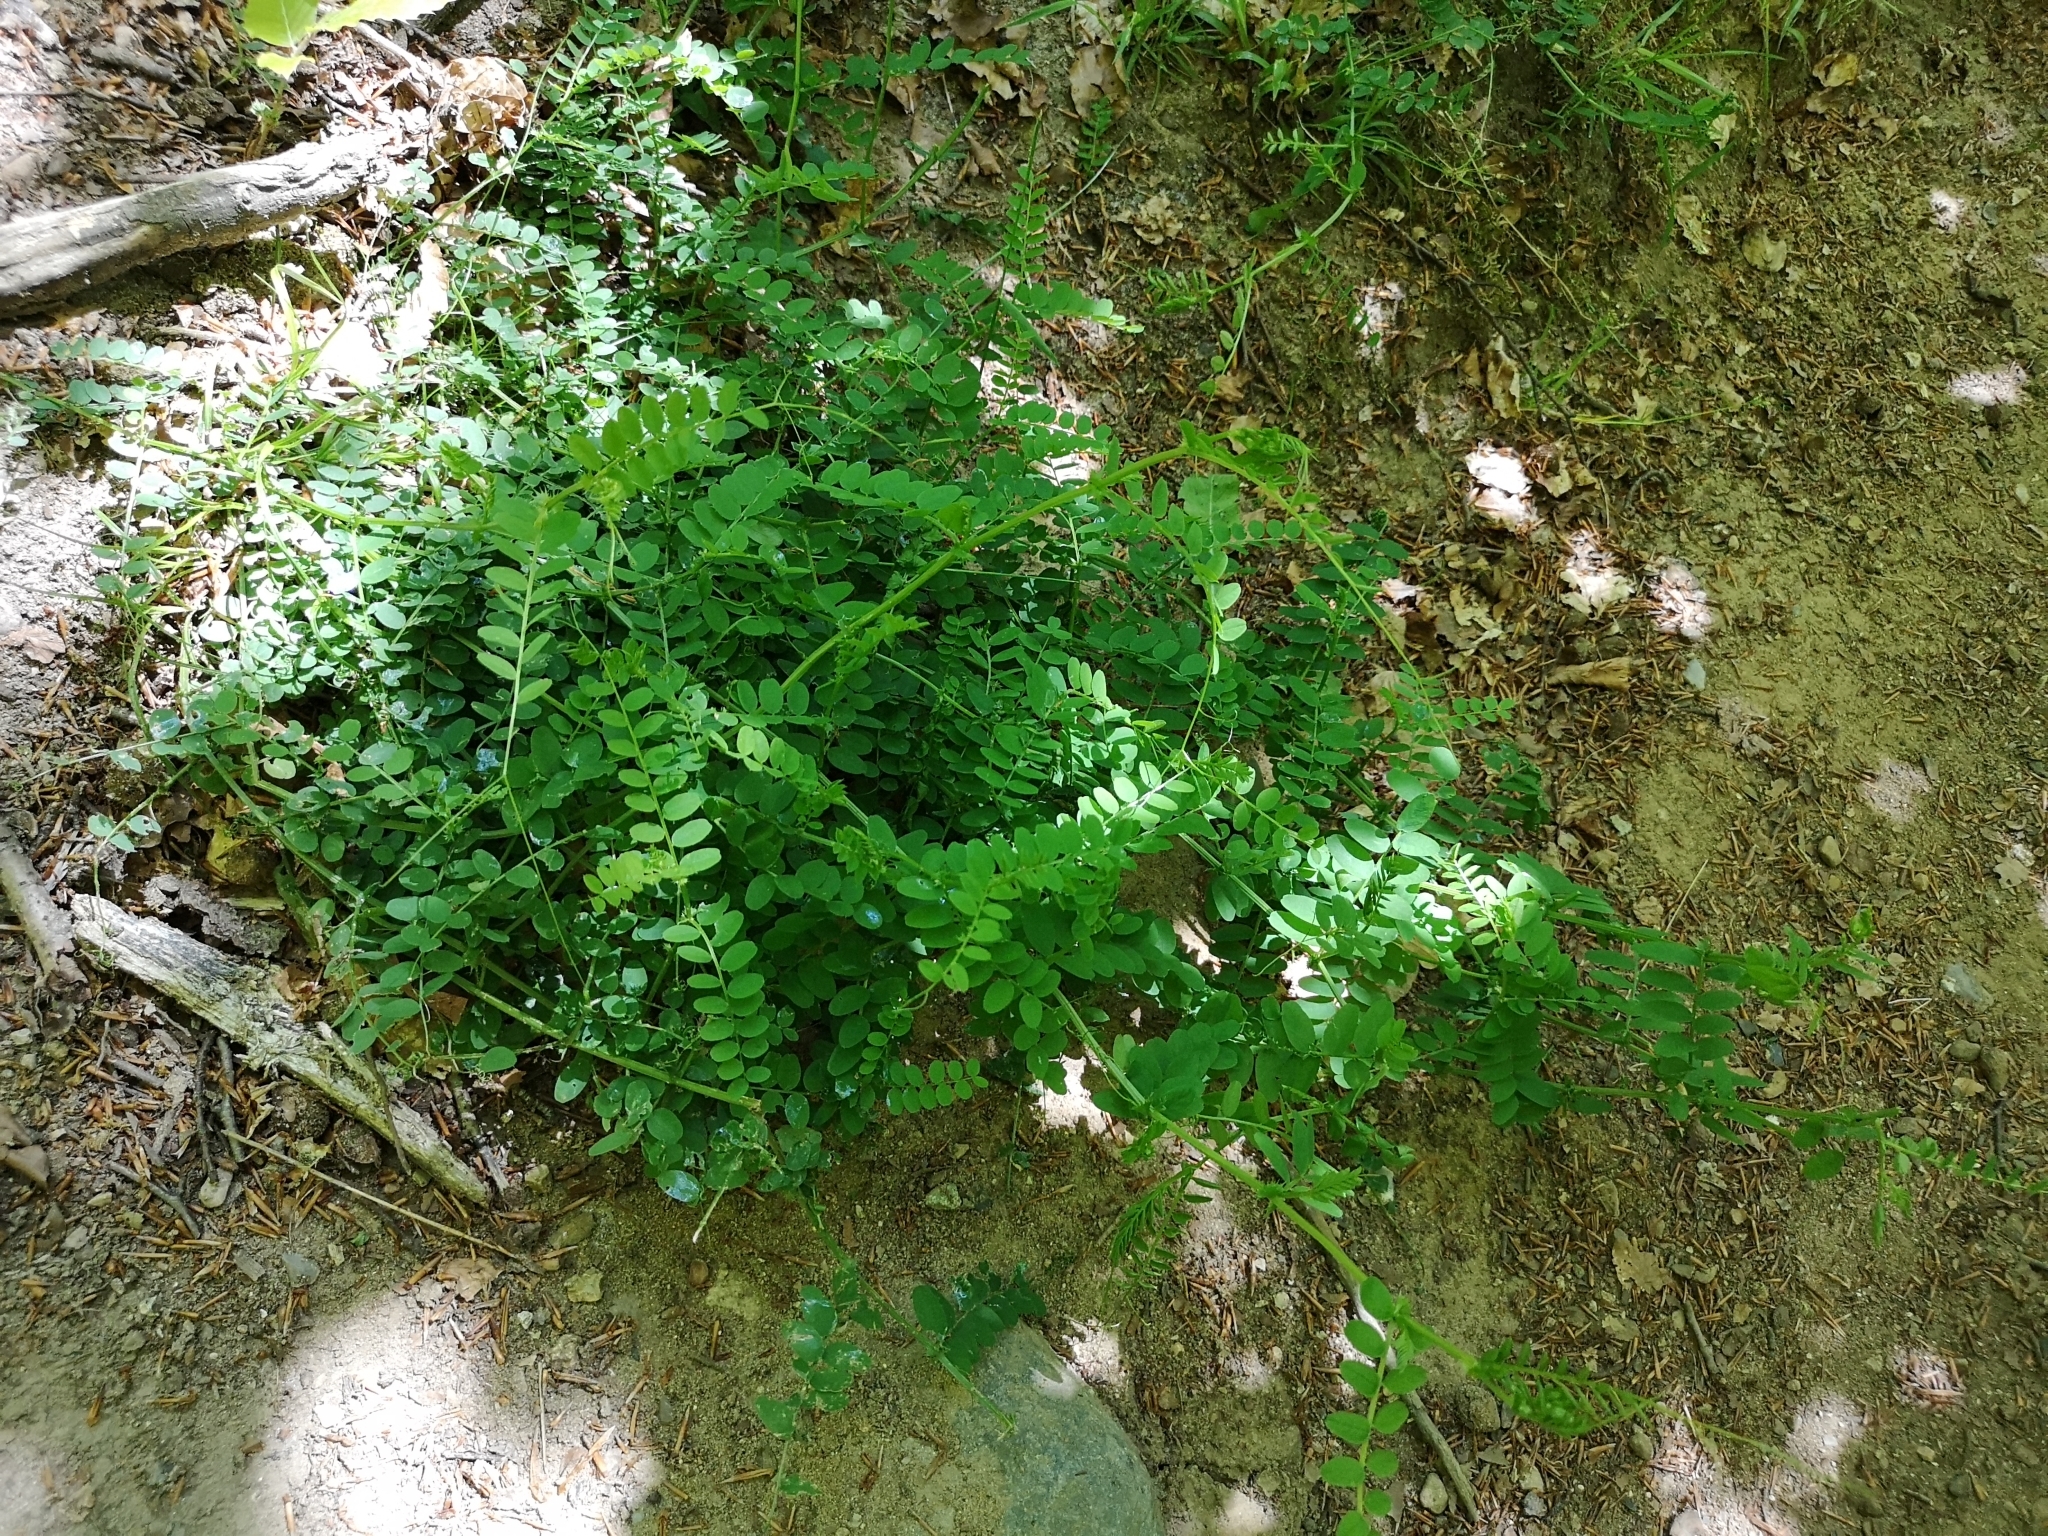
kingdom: Plantae
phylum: Tracheophyta
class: Magnoliopsida
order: Fabales
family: Fabaceae
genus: Vicia
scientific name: Vicia sylvatica
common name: Wood vetch
